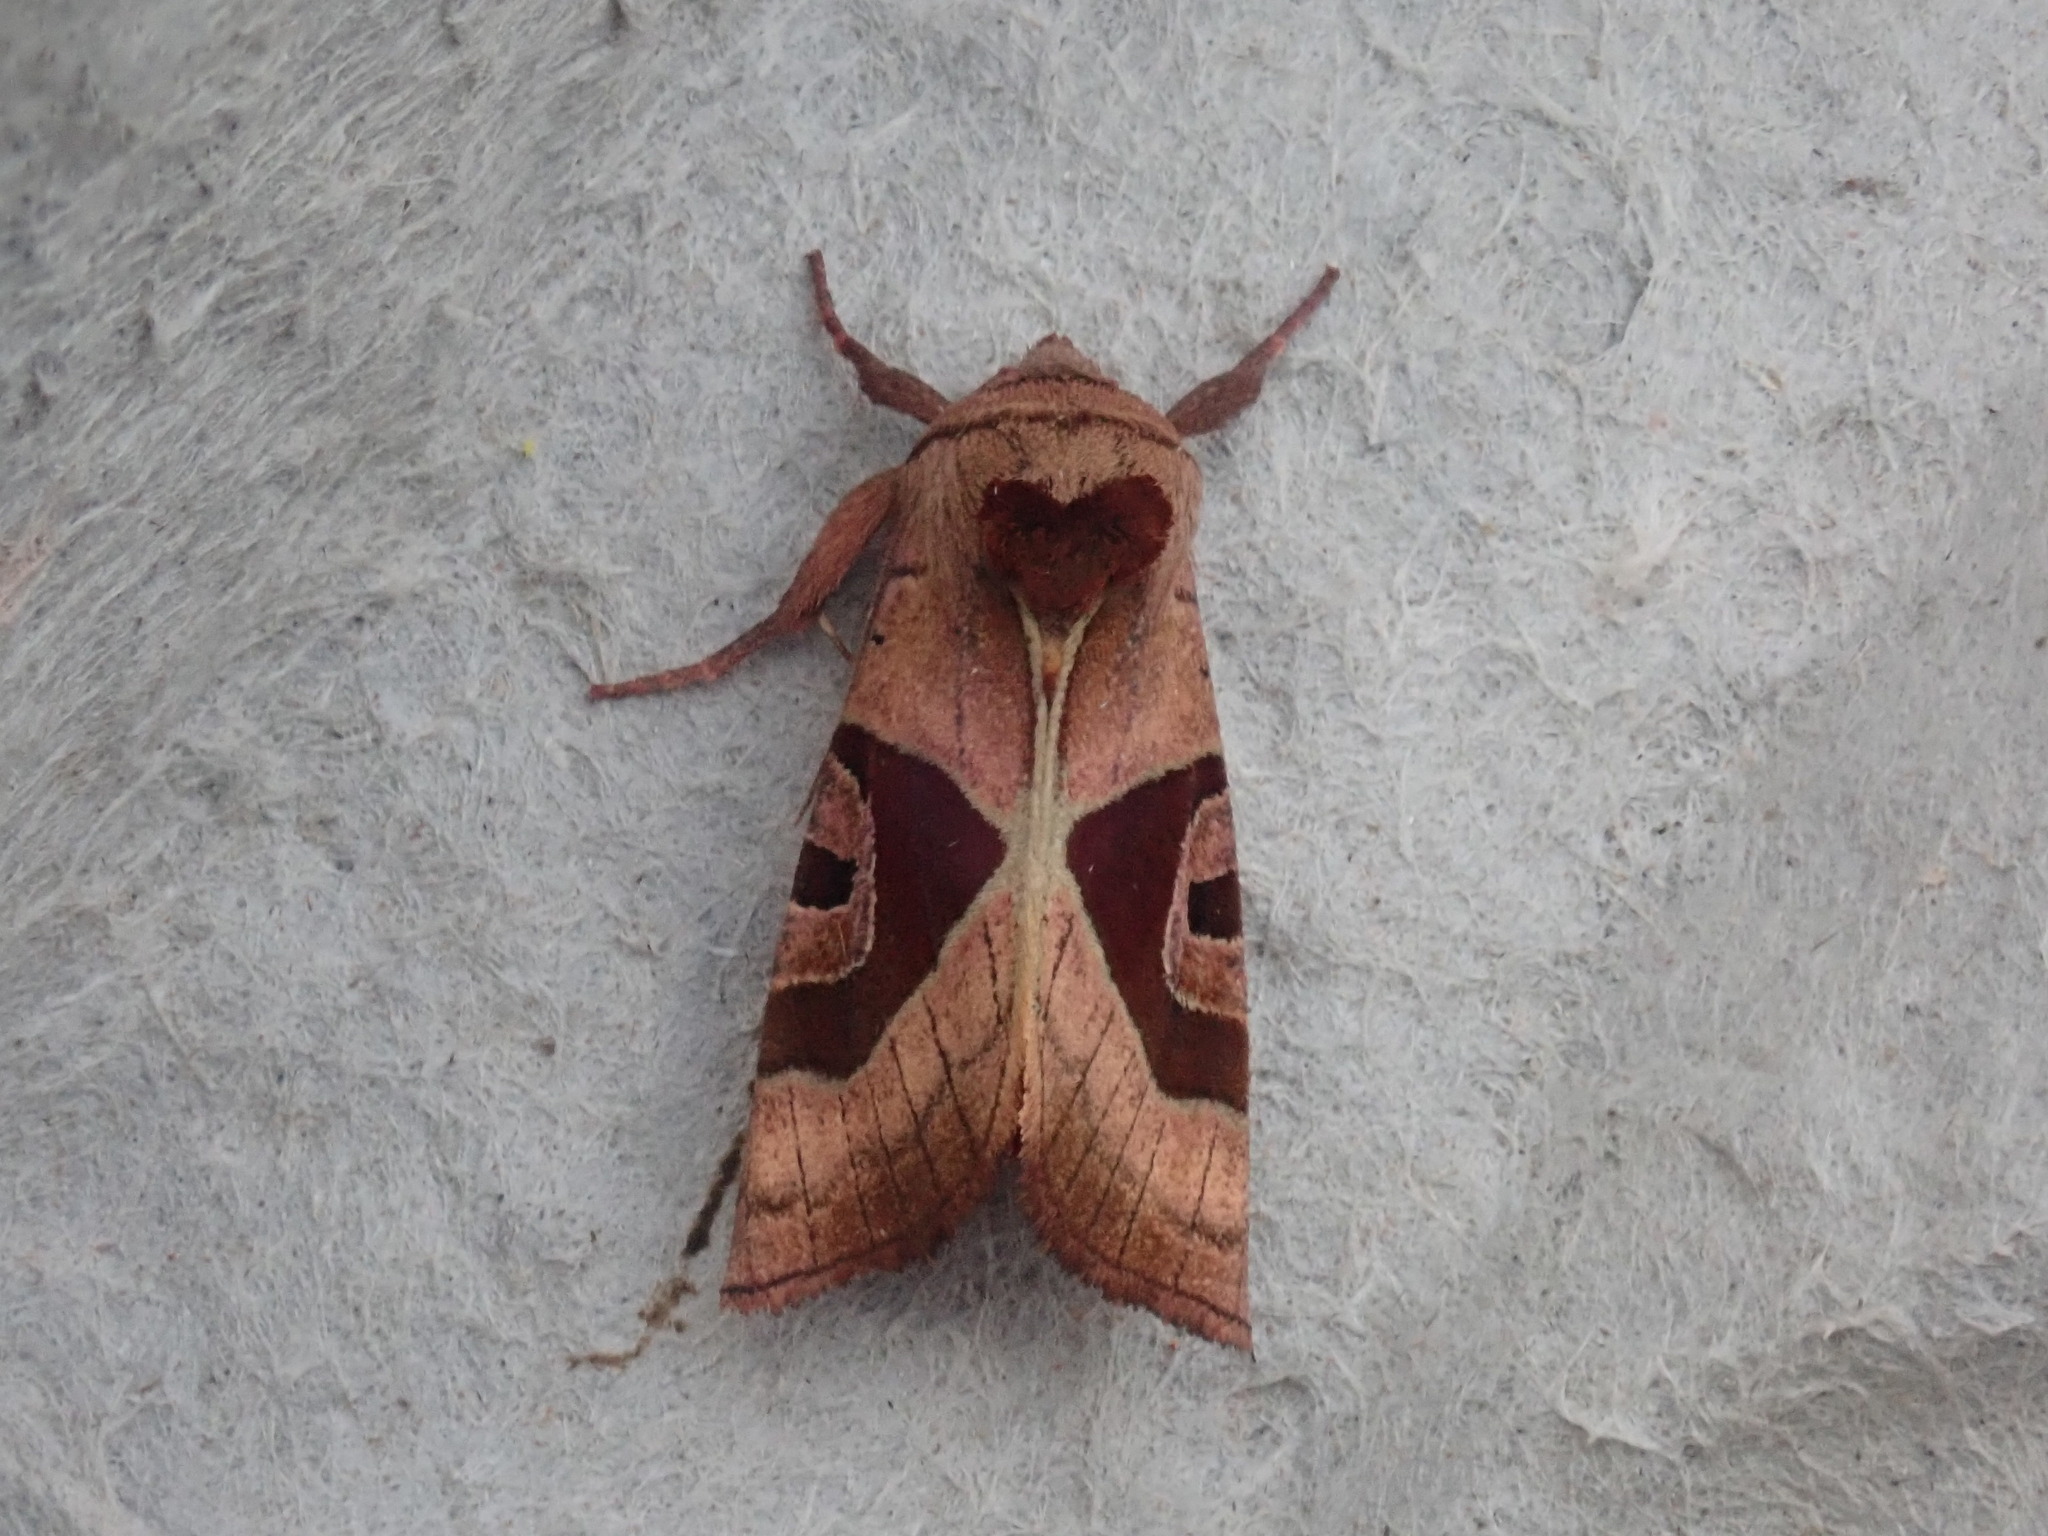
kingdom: Animalia
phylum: Arthropoda
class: Insecta
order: Lepidoptera
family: Noctuidae
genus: Conservula
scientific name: Conservula anodonta
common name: Sharp angle shades
